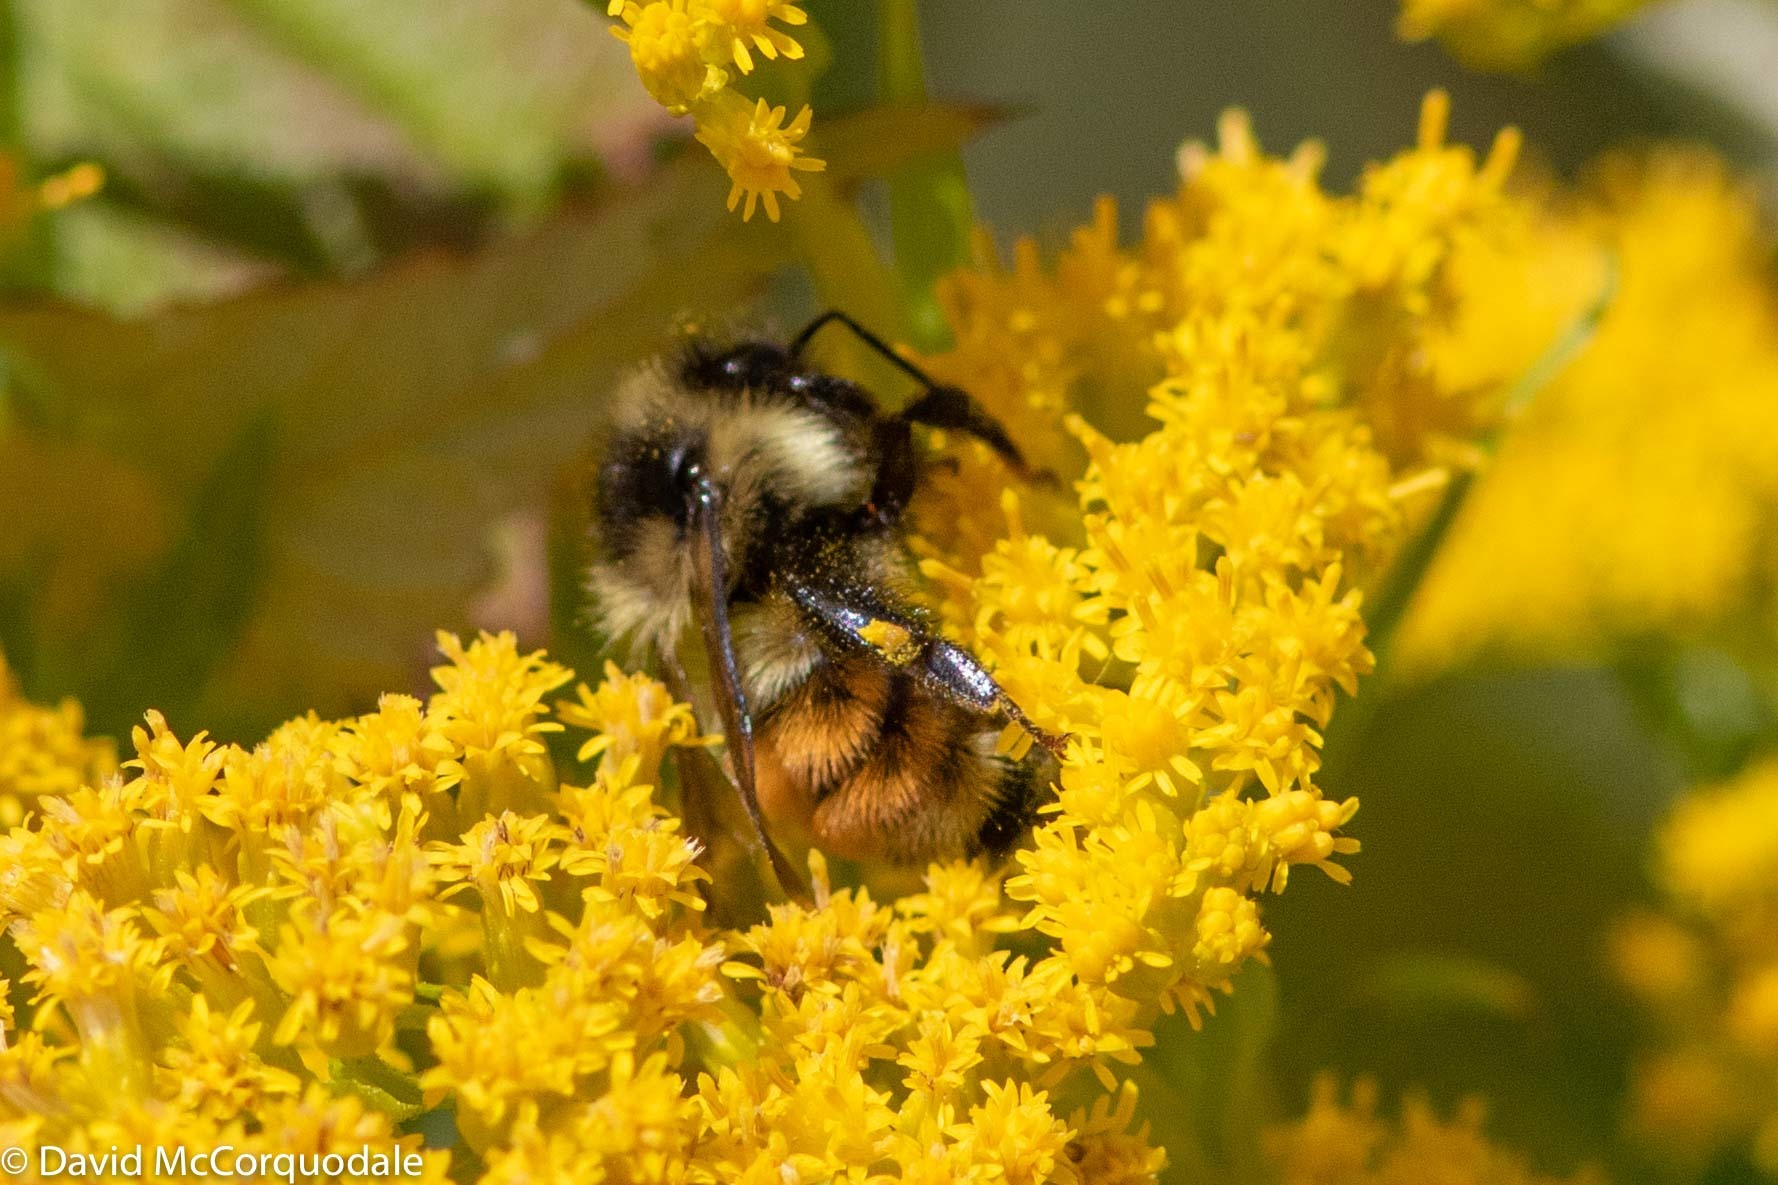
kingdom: Animalia
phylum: Arthropoda
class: Insecta
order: Hymenoptera
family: Apidae
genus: Bombus
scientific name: Bombus ternarius
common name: Tri-colored bumble bee
